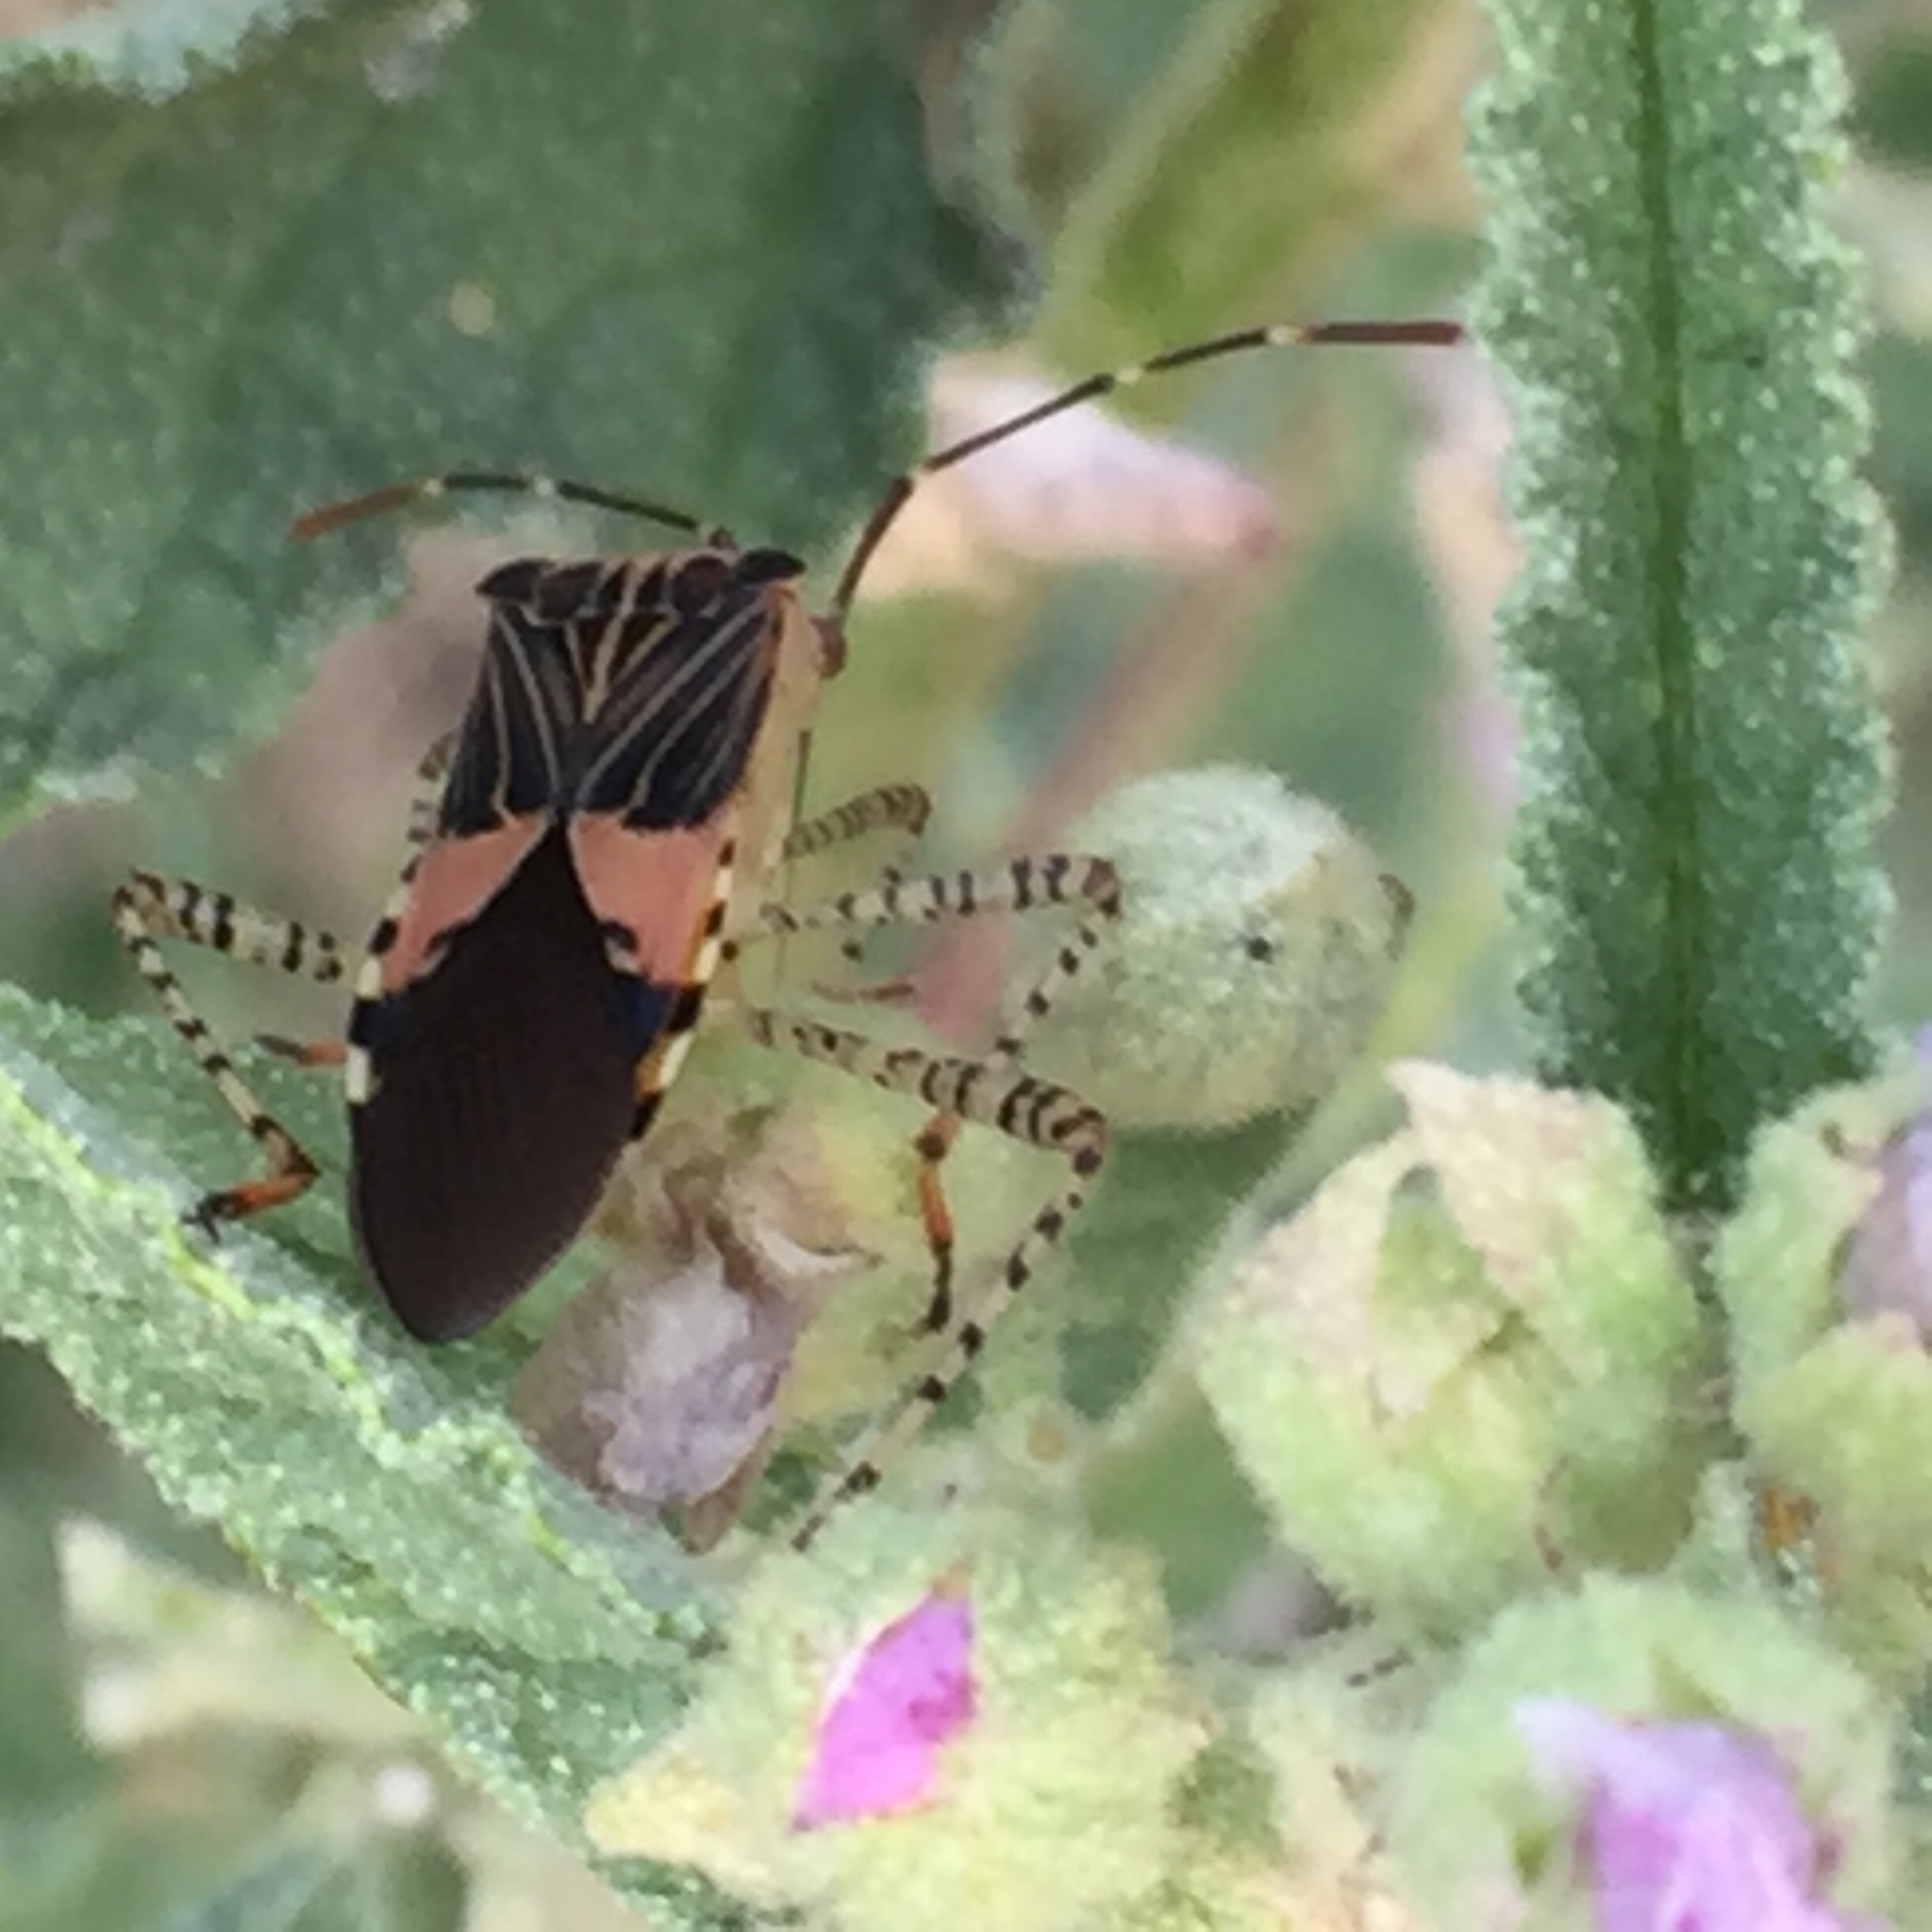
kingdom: Animalia
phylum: Arthropoda
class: Insecta
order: Hemiptera
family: Coreidae
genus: Hypselonotus
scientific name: Hypselonotus punctiventris
